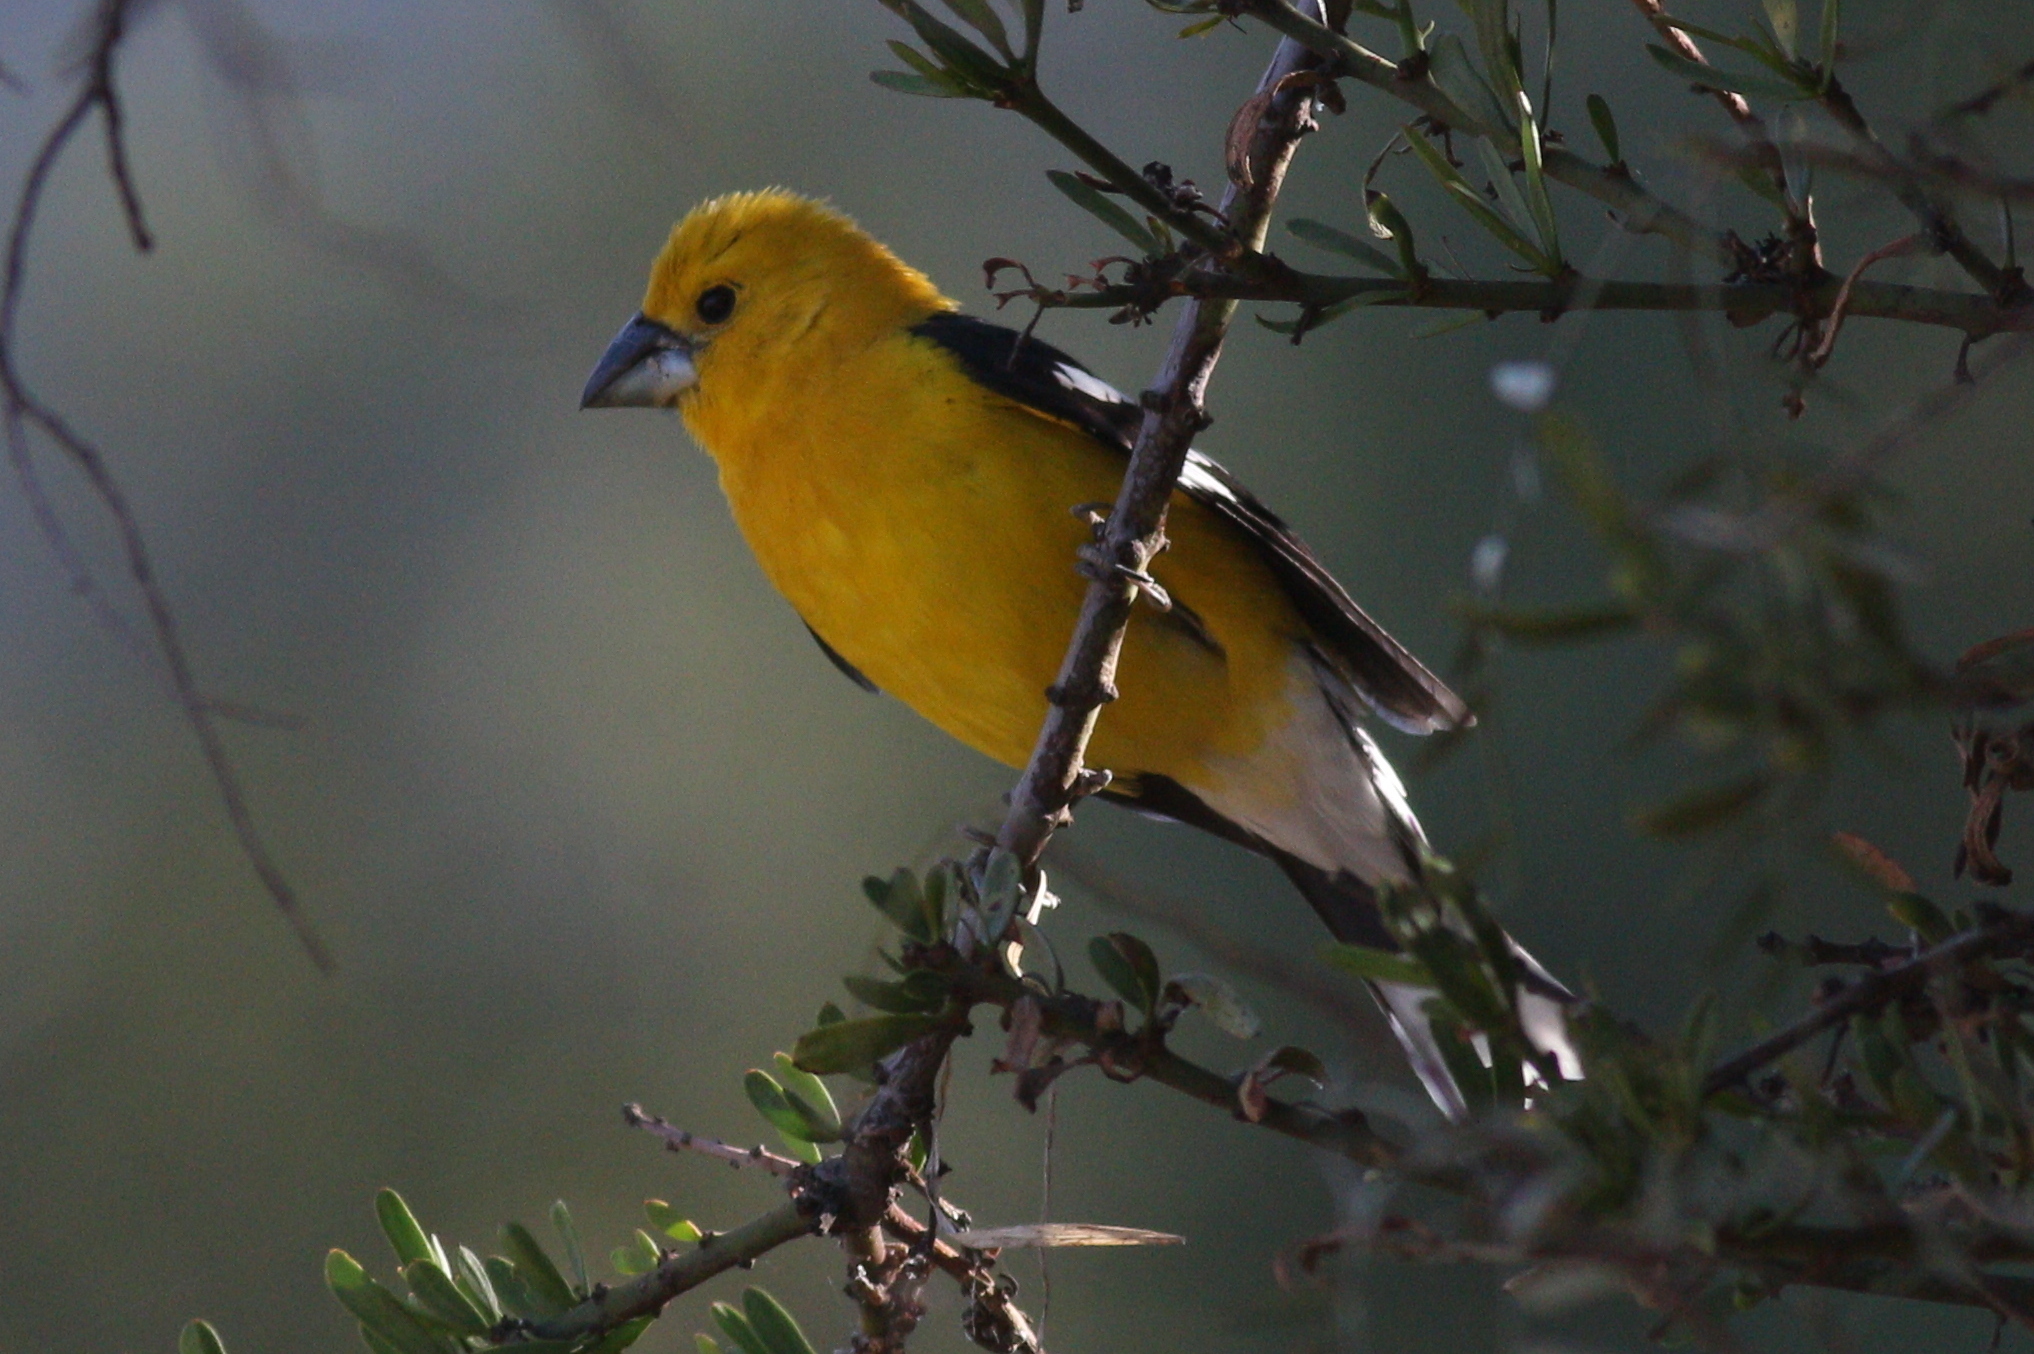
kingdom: Animalia
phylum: Chordata
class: Aves
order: Passeriformes
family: Cardinalidae
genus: Pheucticus
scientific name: Pheucticus chrysogaster
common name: Golden grosbeak
